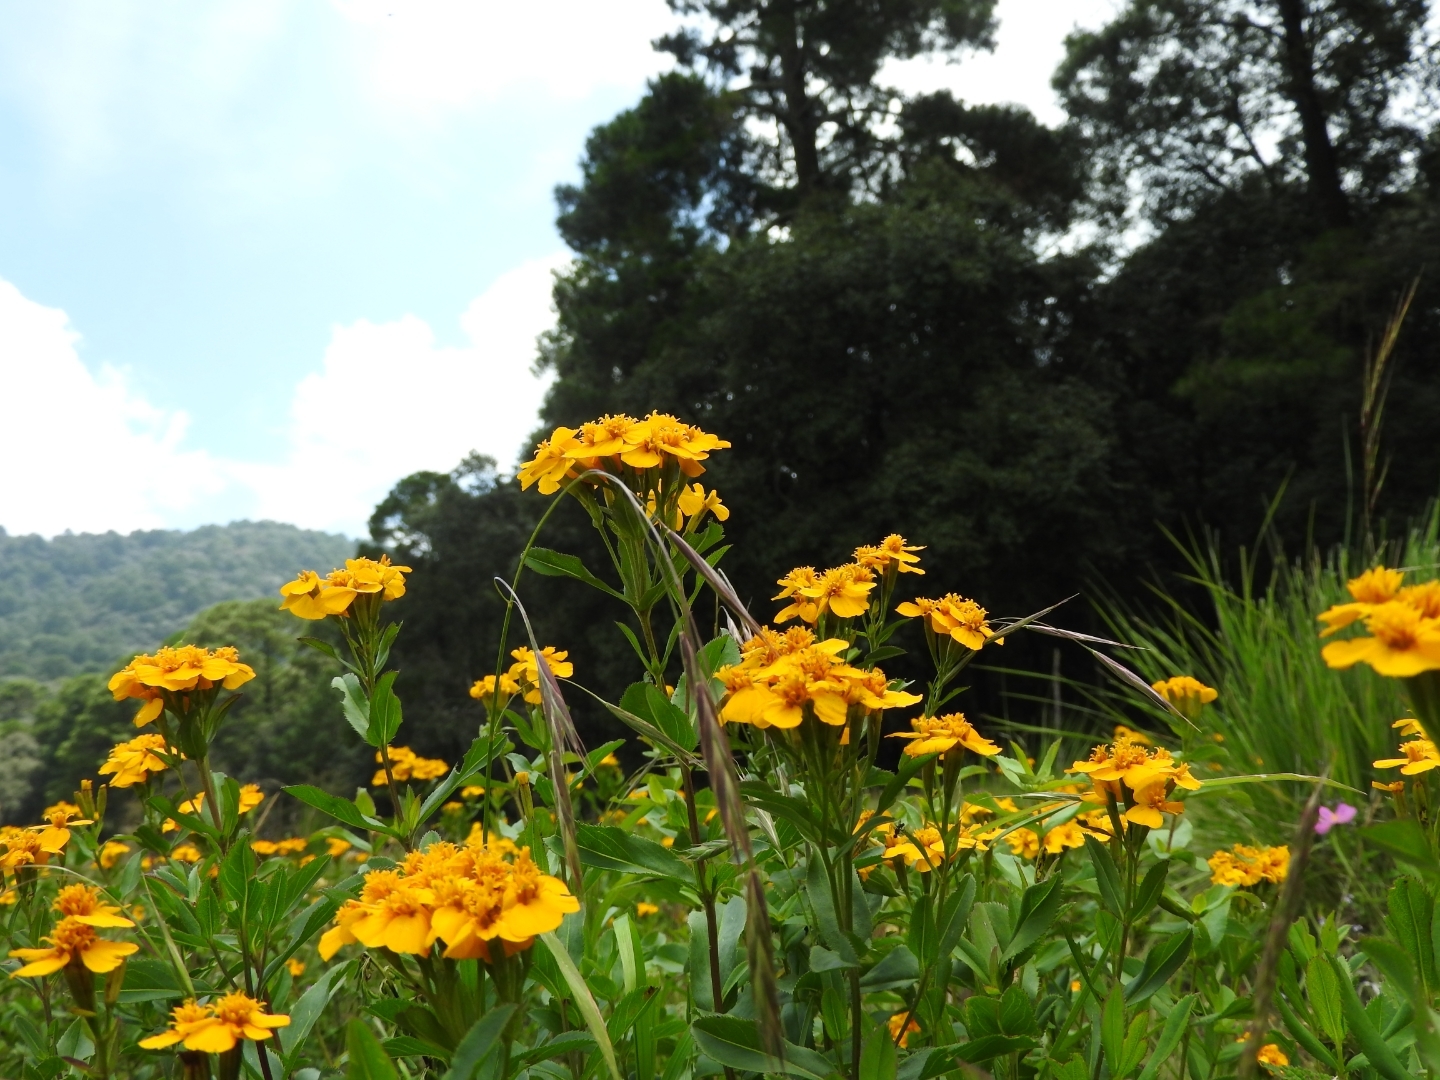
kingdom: Plantae
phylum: Tracheophyta
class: Magnoliopsida
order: Asterales
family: Asteraceae
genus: Tagetes
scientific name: Tagetes lucida
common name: Sweetscented marigold
